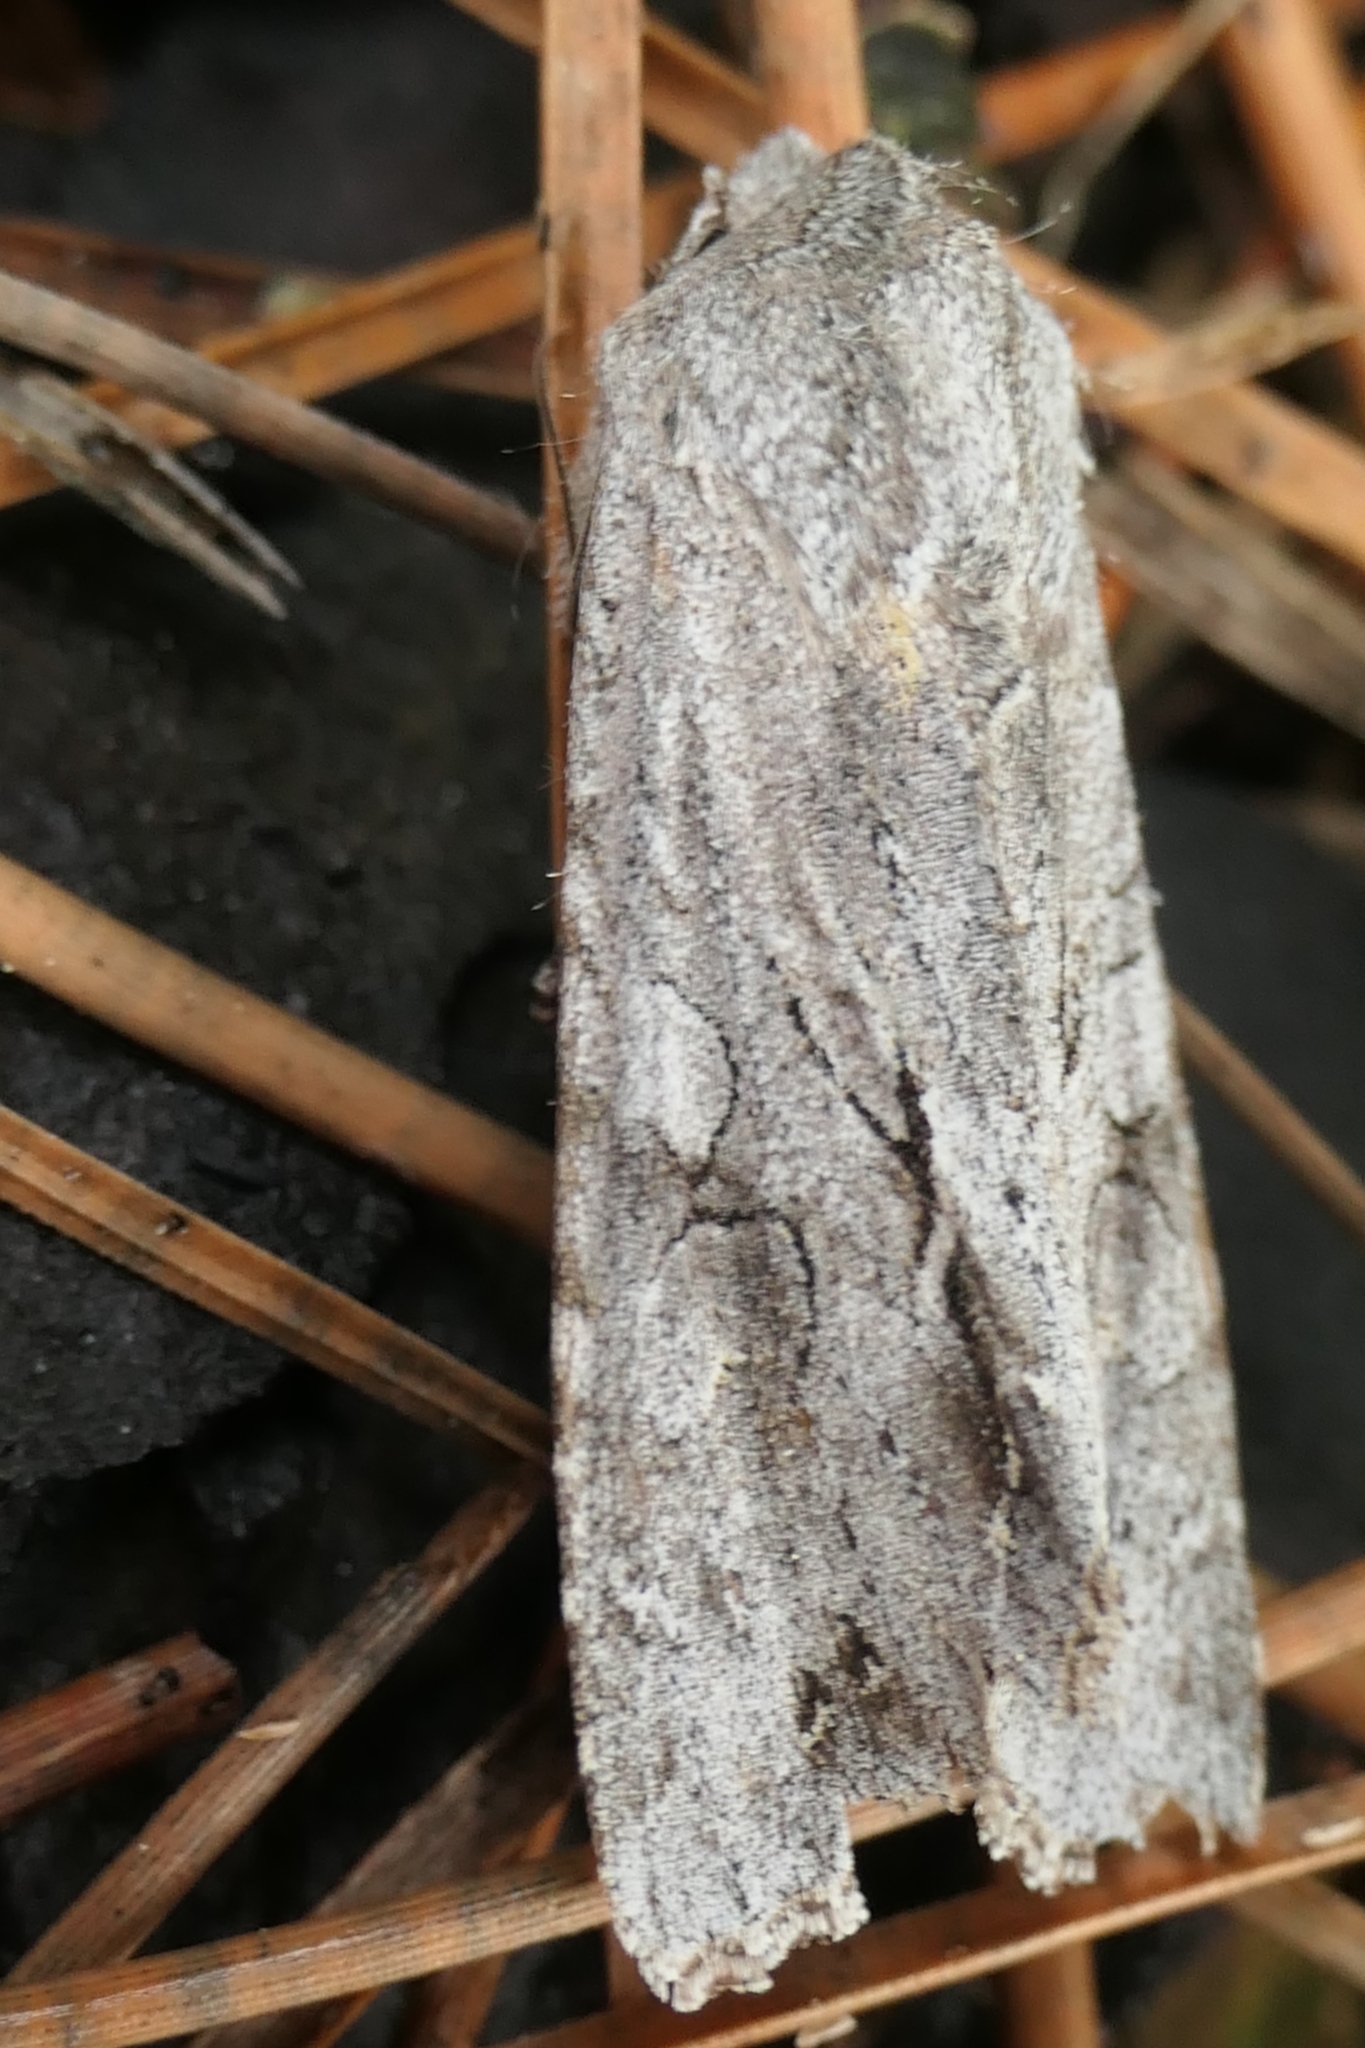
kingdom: Animalia
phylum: Arthropoda
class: Insecta
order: Lepidoptera
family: Noctuidae
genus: Ichneutica
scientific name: Ichneutica
